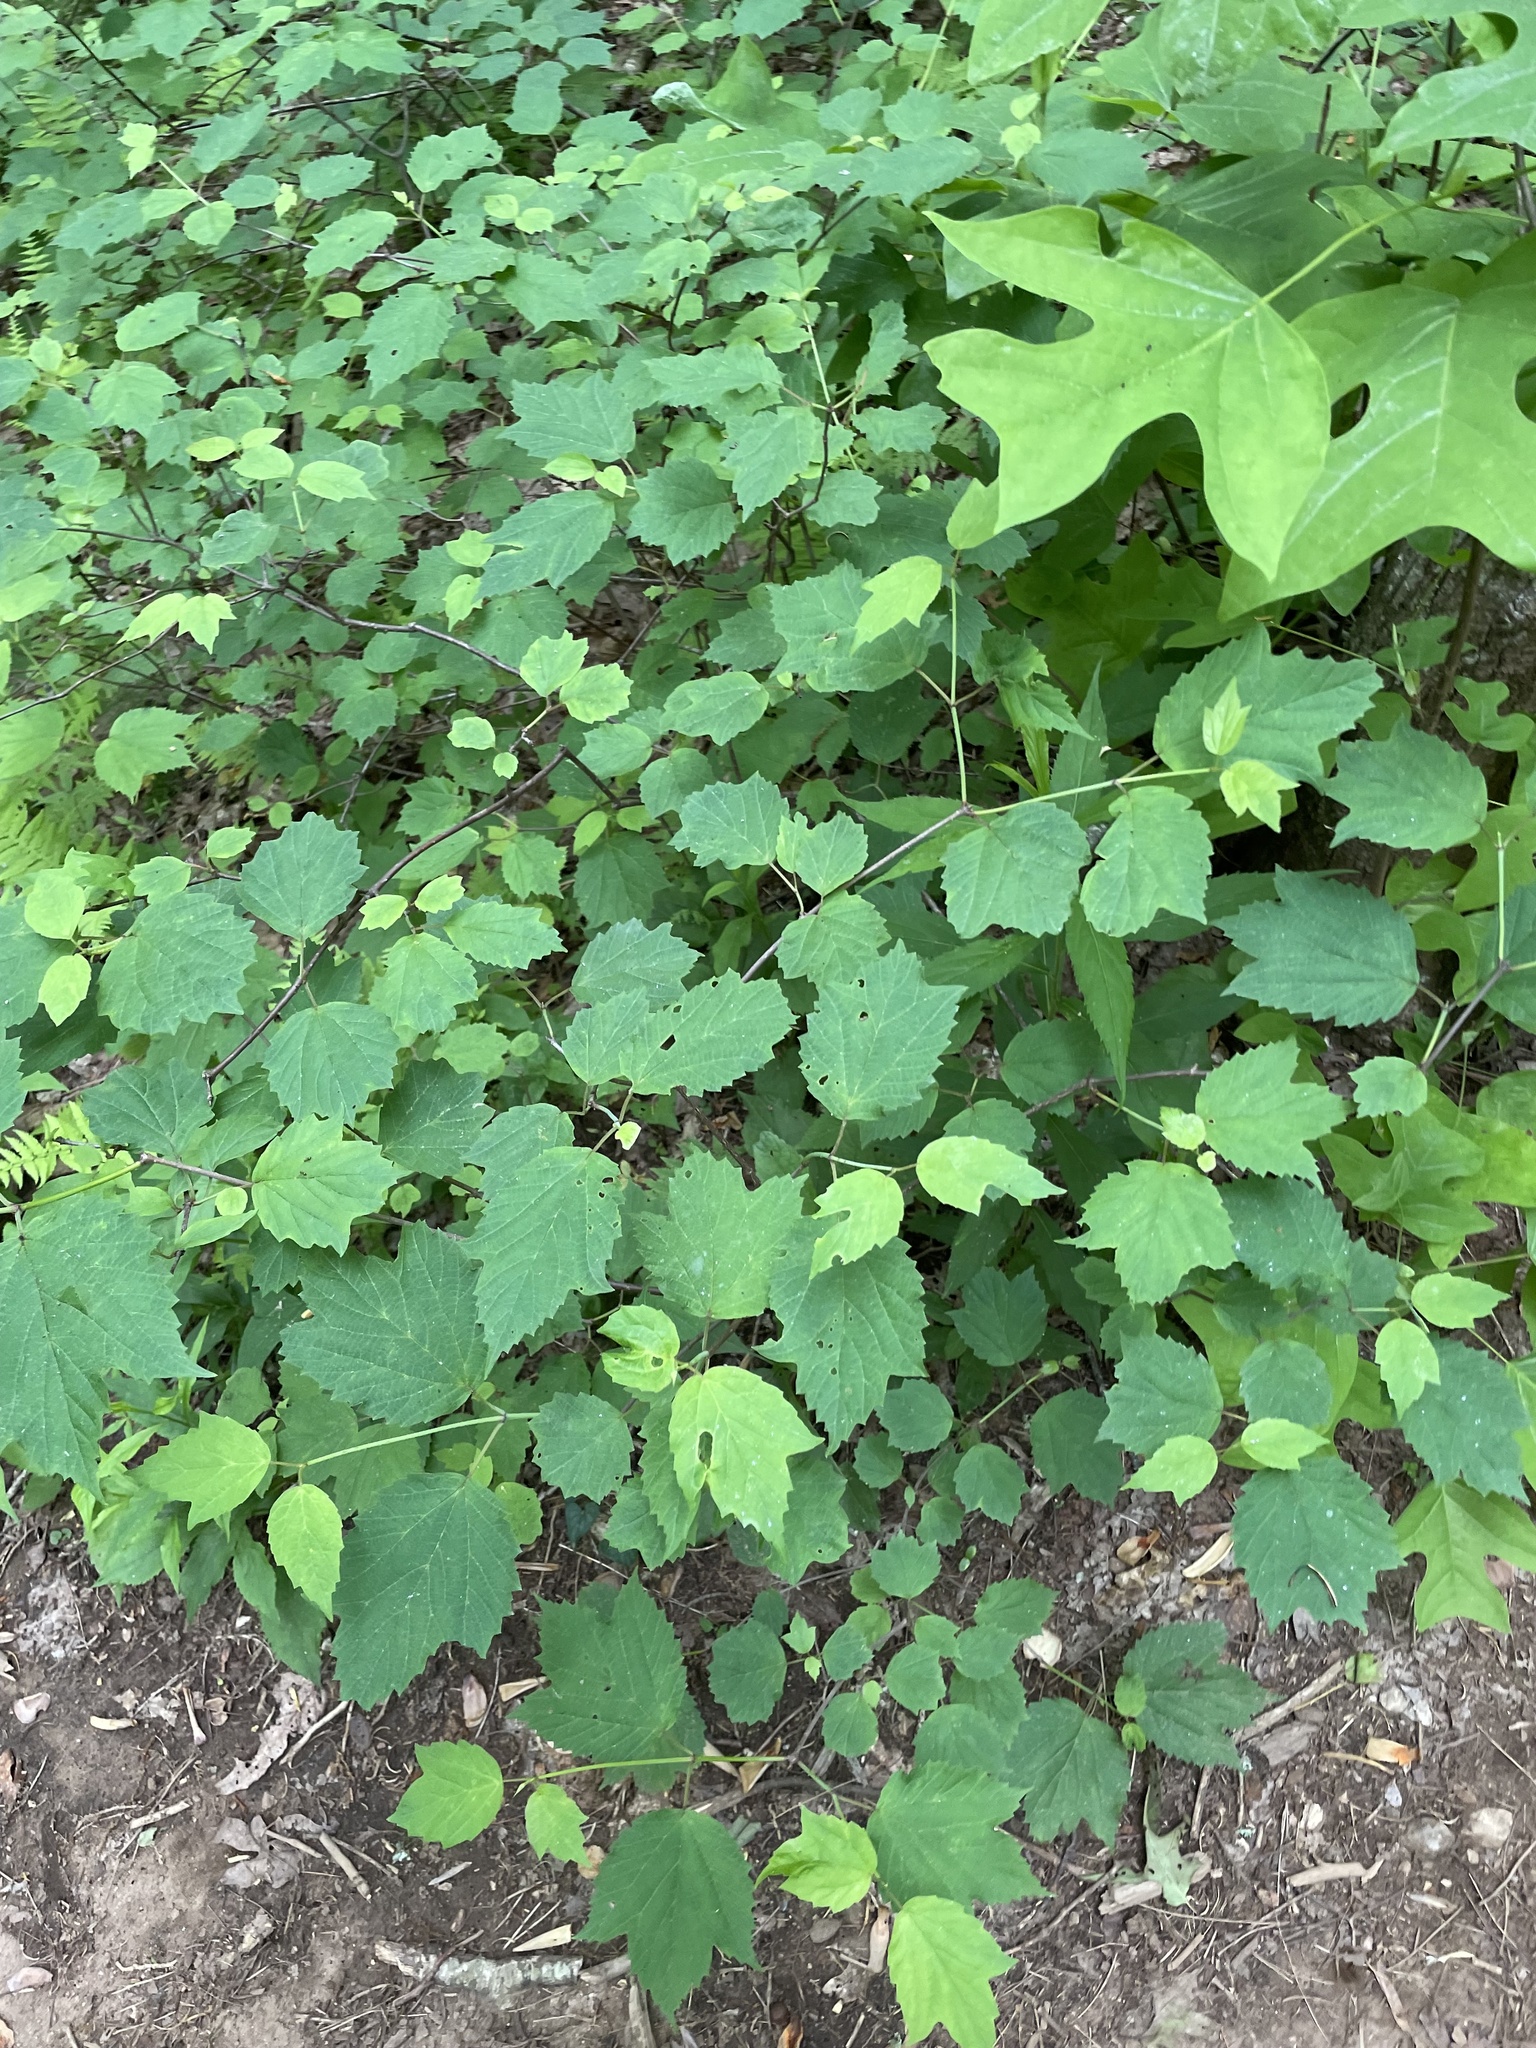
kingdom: Plantae
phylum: Tracheophyta
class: Magnoliopsida
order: Dipsacales
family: Viburnaceae
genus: Viburnum
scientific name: Viburnum acerifolium
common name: Dockmackie
